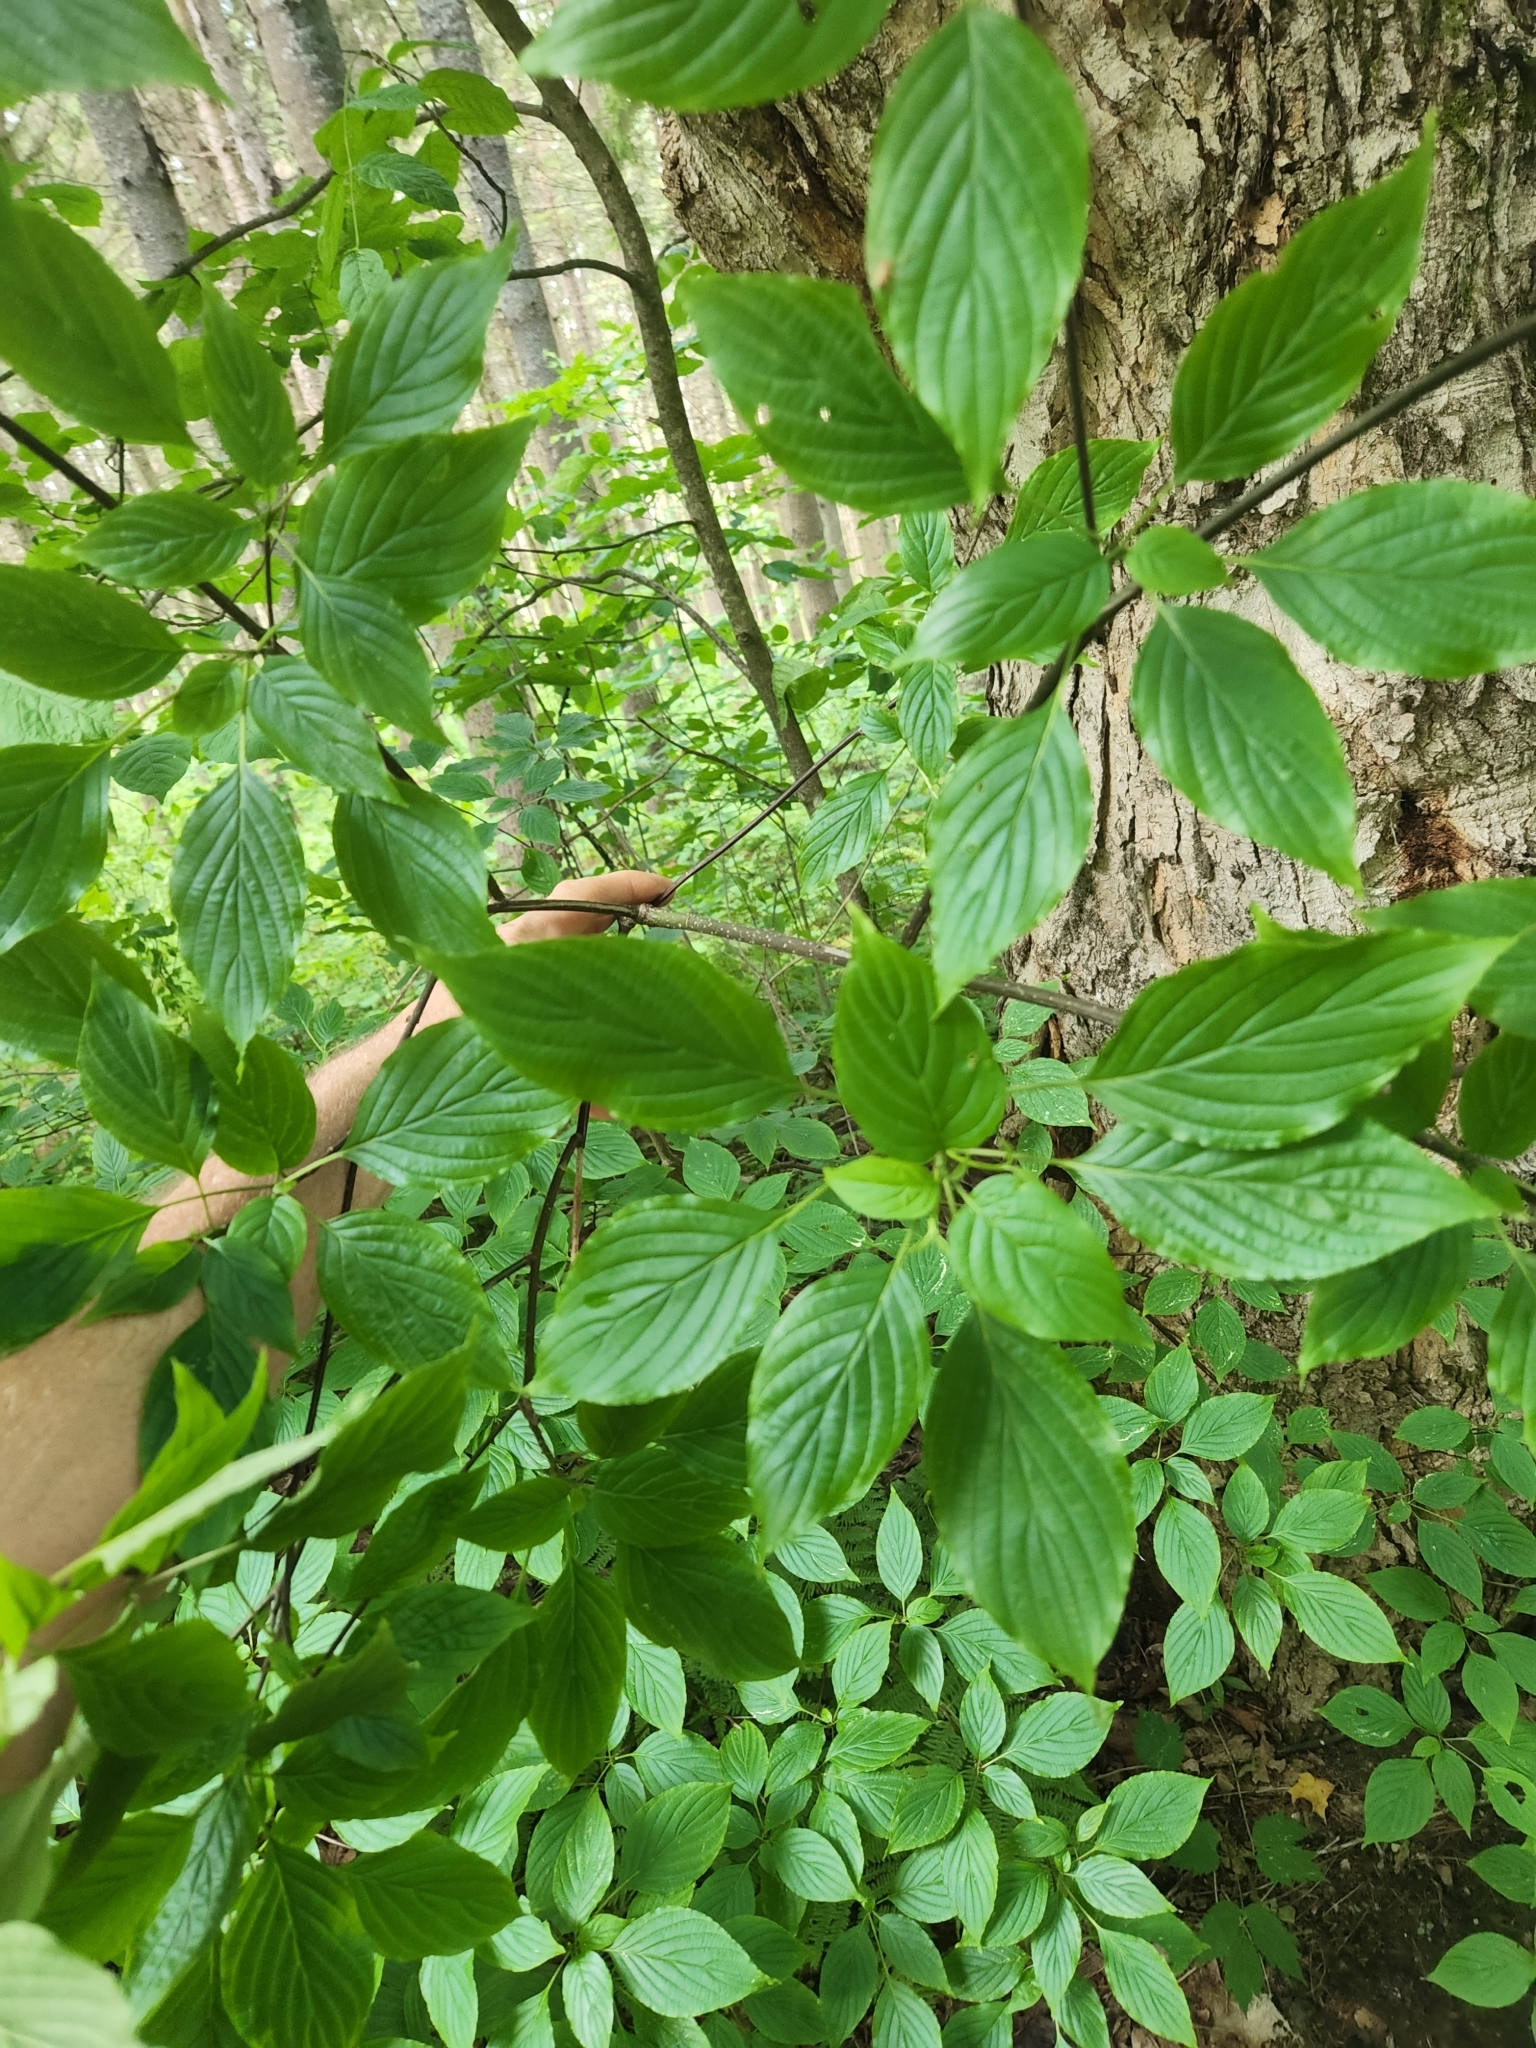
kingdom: Plantae
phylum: Tracheophyta
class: Magnoliopsida
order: Cornales
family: Cornaceae
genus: Cornus
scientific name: Cornus alternifolia
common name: Pagoda dogwood
